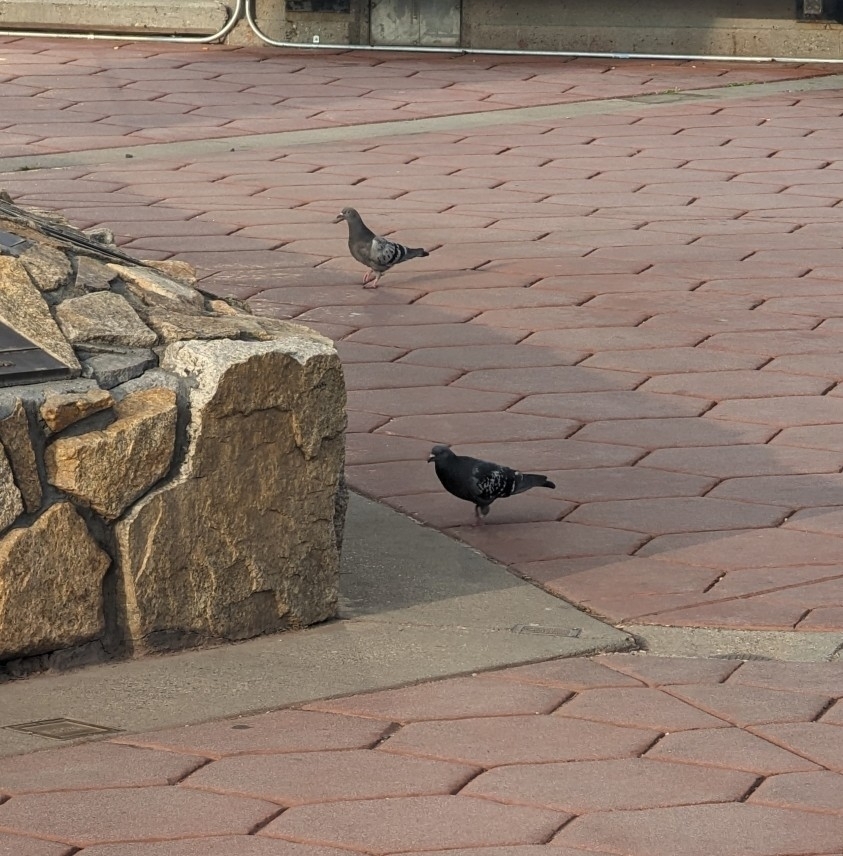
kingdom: Animalia
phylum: Chordata
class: Aves
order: Columbiformes
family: Columbidae
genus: Columba
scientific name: Columba livia
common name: Rock pigeon
